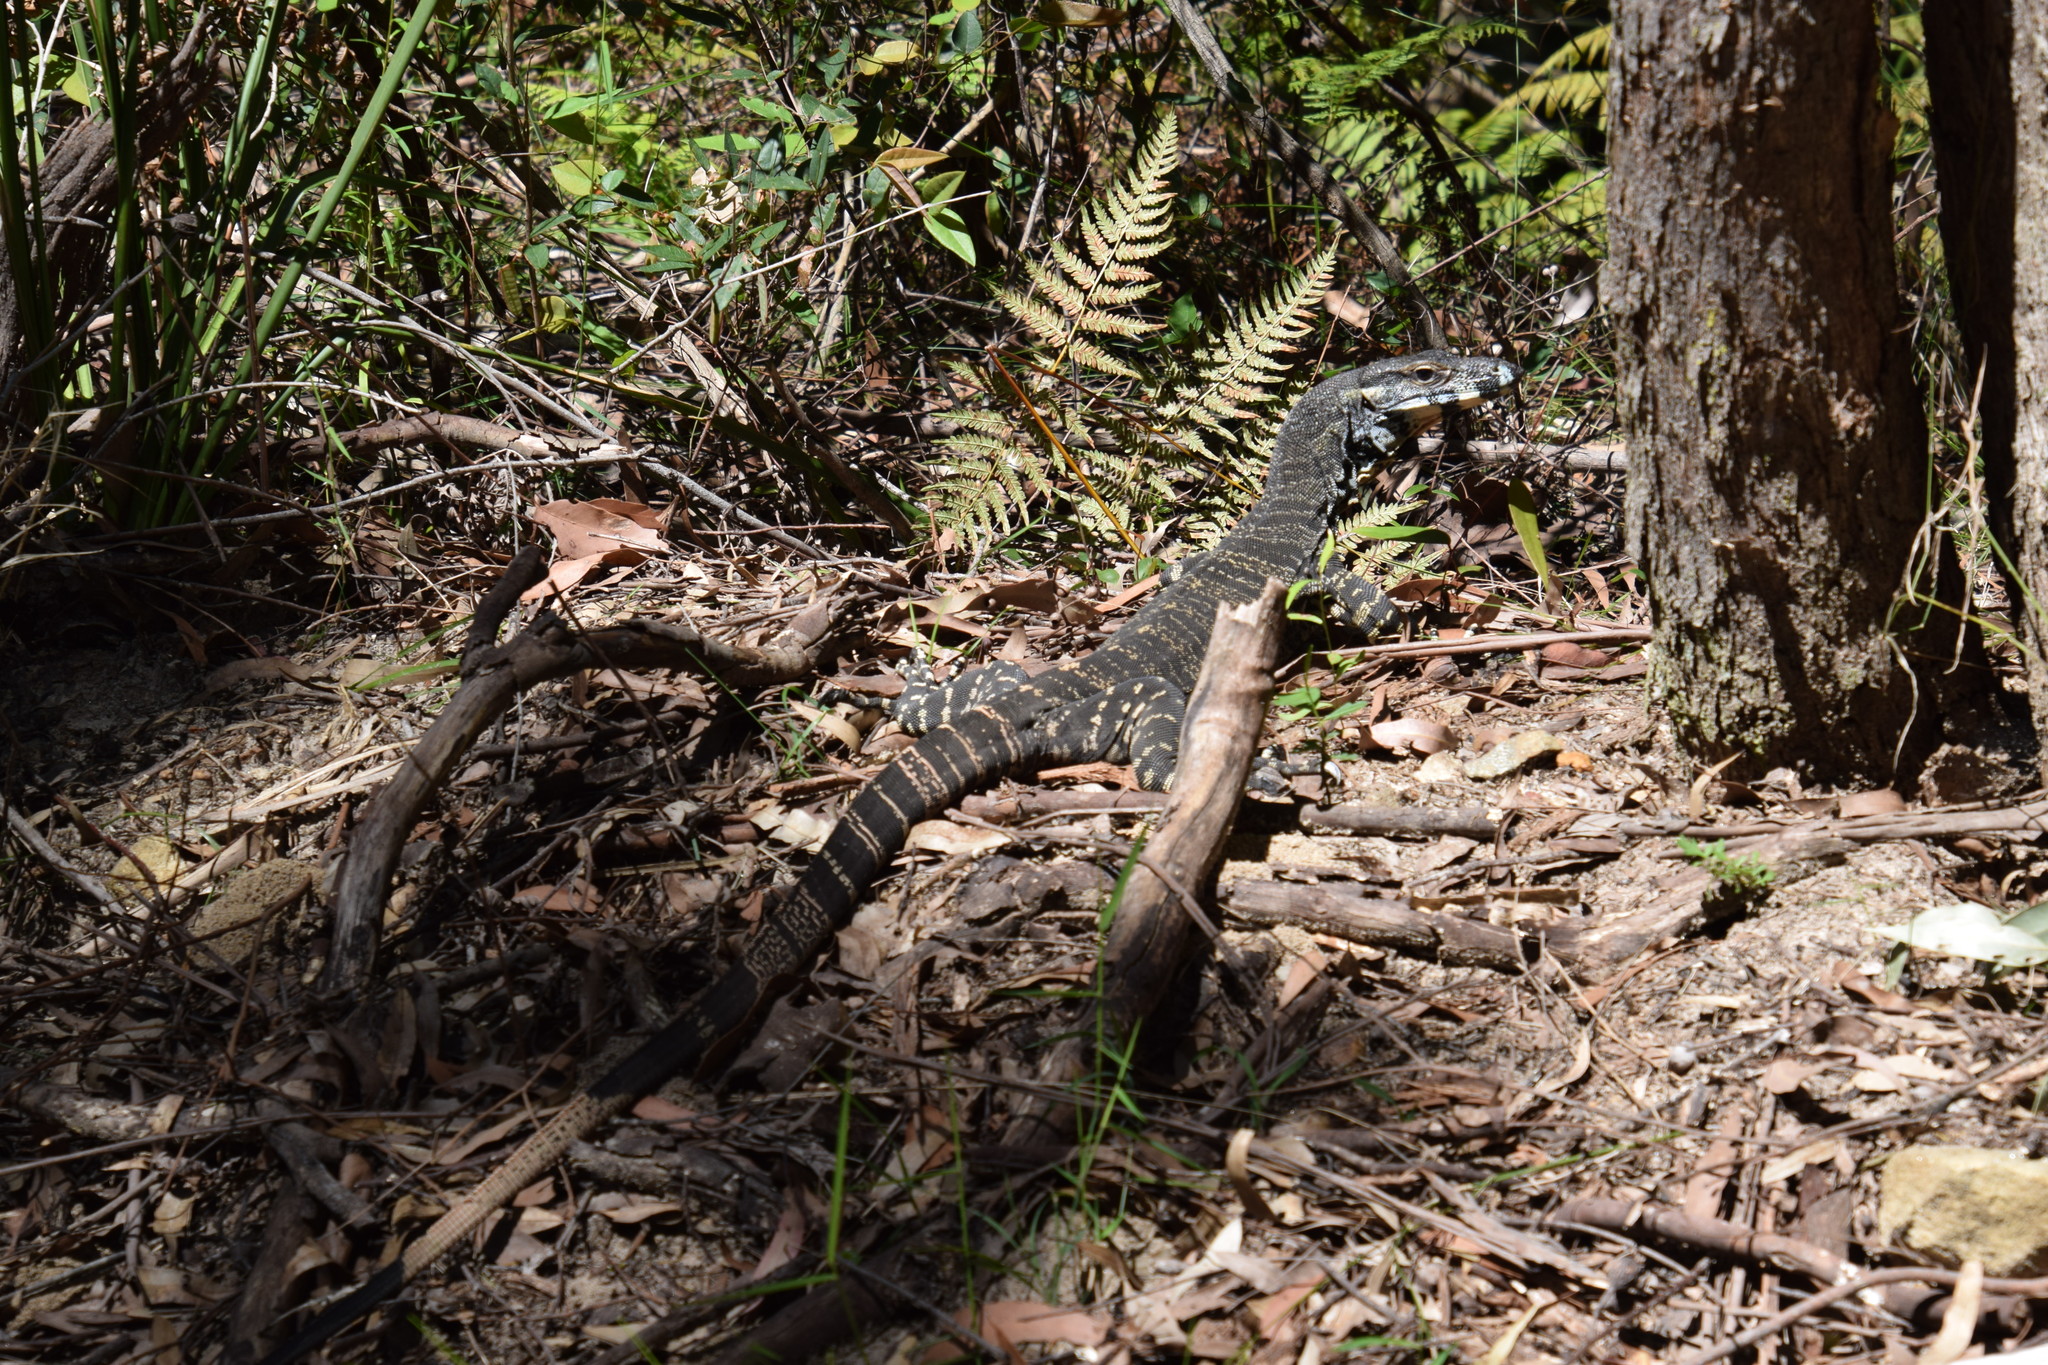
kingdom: Animalia
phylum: Chordata
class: Squamata
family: Varanidae
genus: Varanus
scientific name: Varanus varius
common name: Lace monitor
